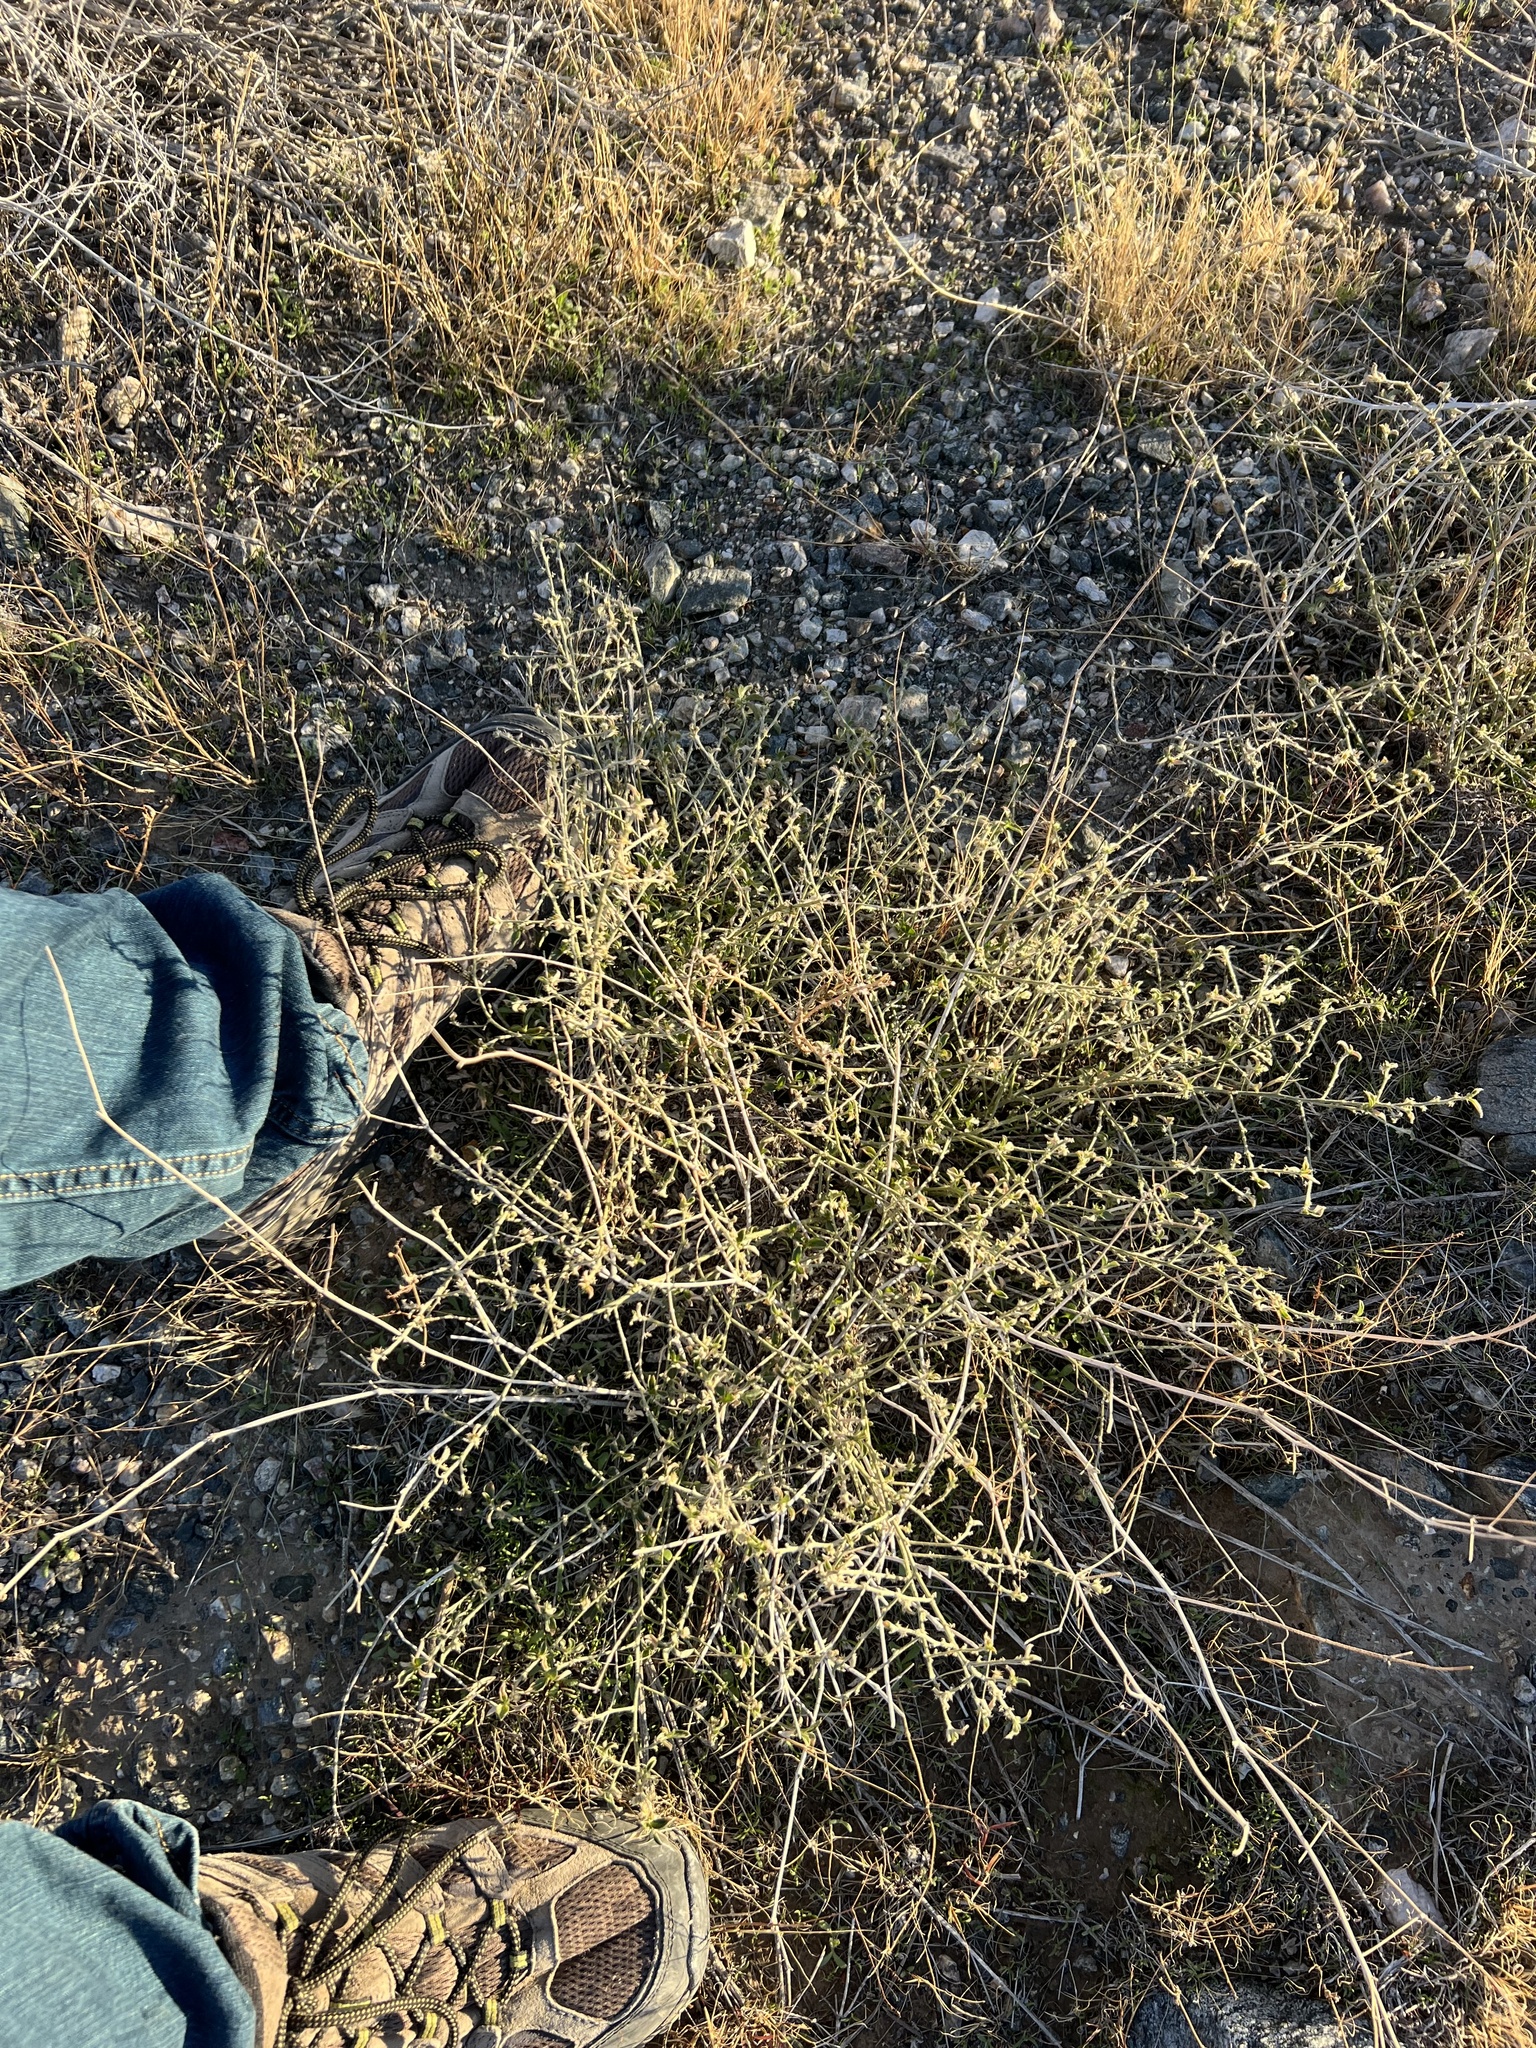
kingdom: Plantae
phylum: Tracheophyta
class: Magnoliopsida
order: Malpighiales
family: Euphorbiaceae
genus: Ditaxis
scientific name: Ditaxis serrata
